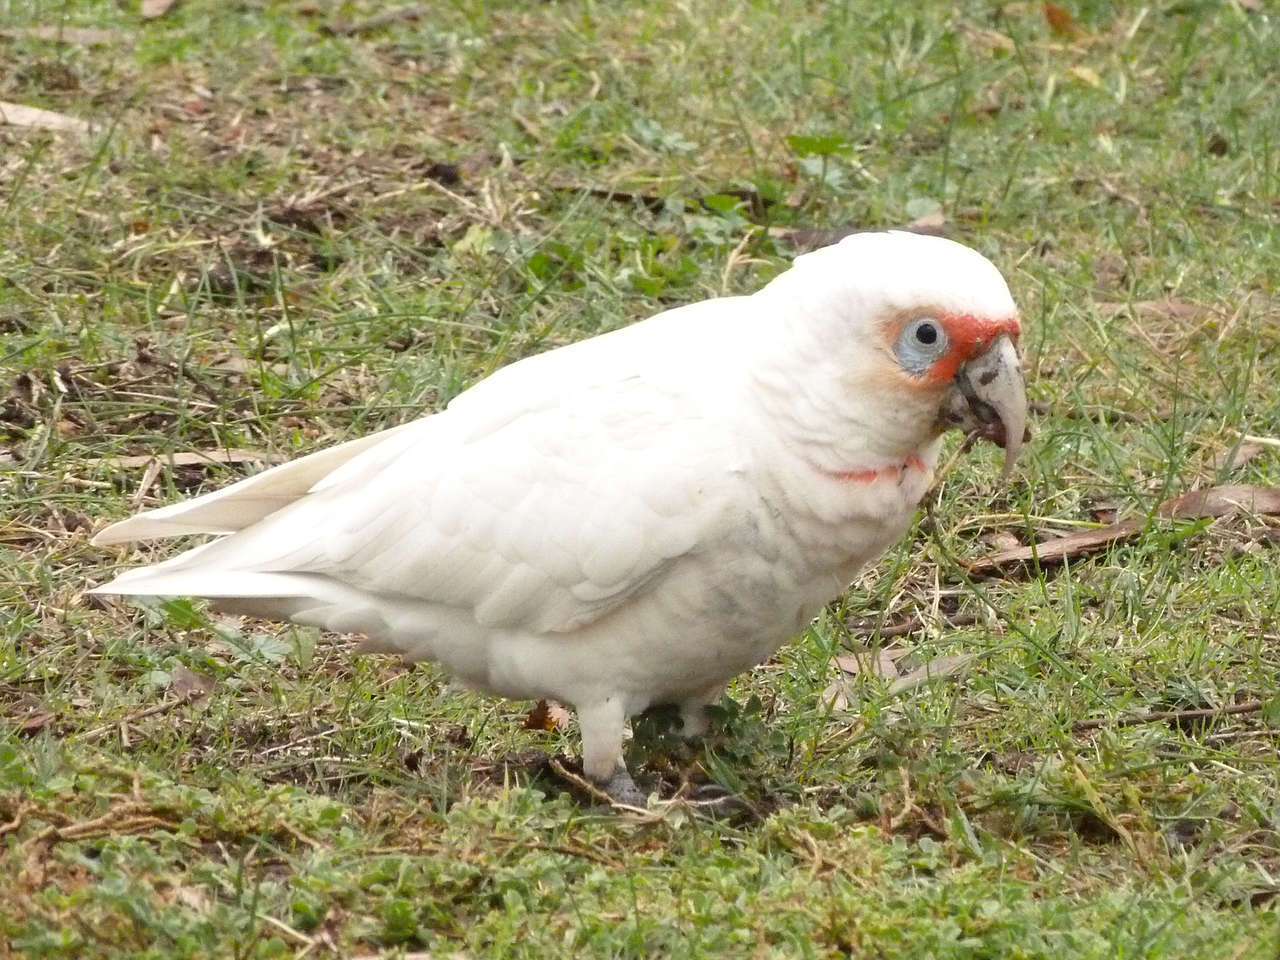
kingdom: Animalia
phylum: Chordata
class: Aves
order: Psittaciformes
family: Psittacidae
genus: Cacatua
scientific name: Cacatua tenuirostris
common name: Long-billed corella
